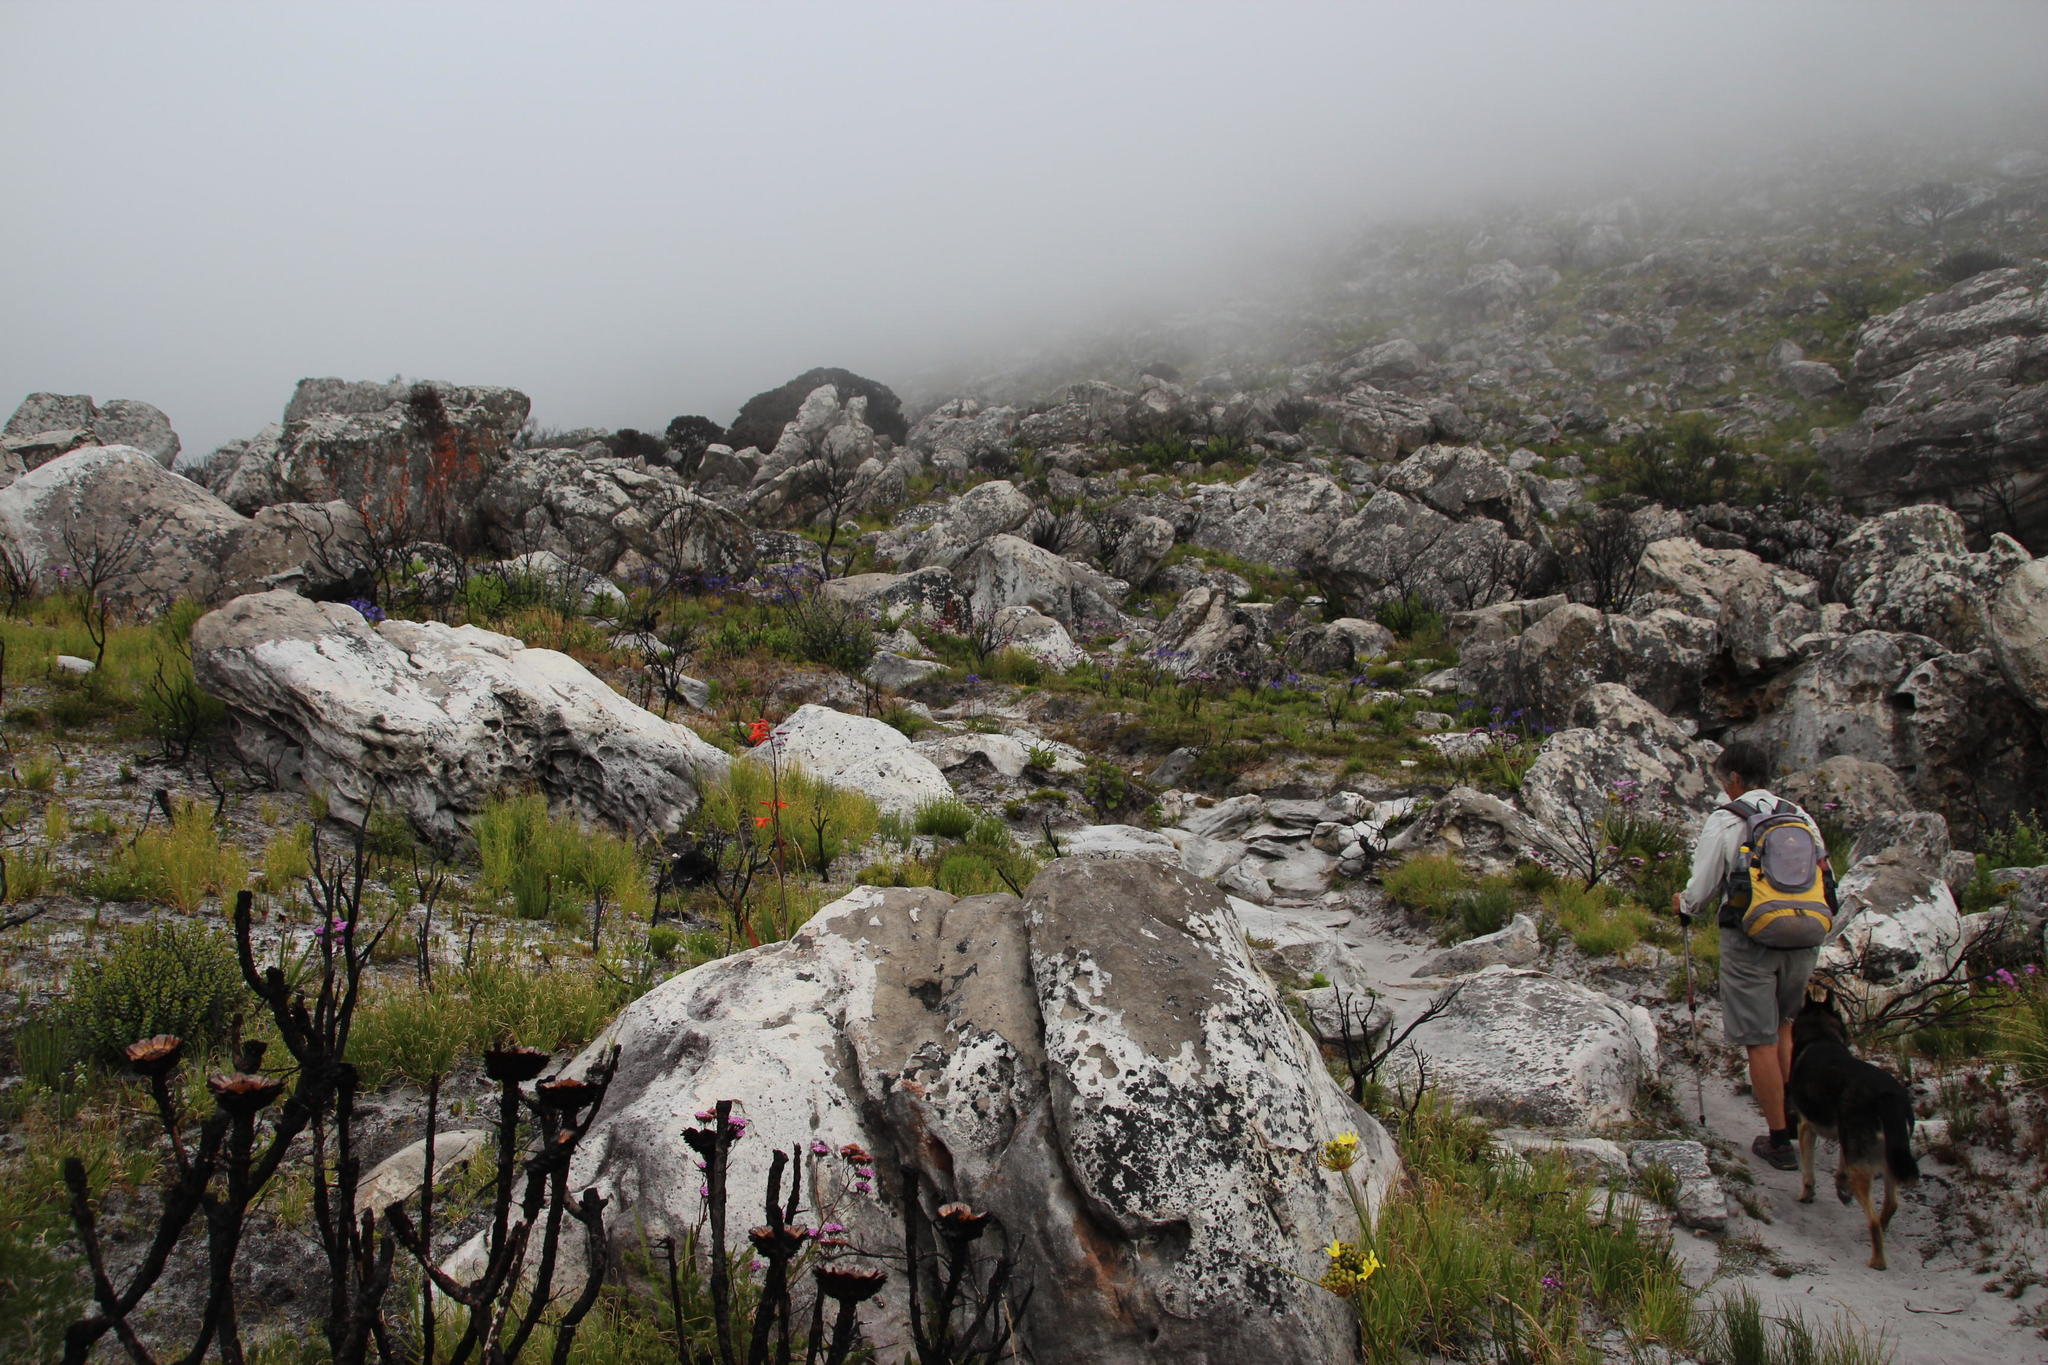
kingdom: Plantae
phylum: Tracheophyta
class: Liliopsida
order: Asparagales
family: Iridaceae
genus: Watsonia
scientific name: Watsonia tabularis
